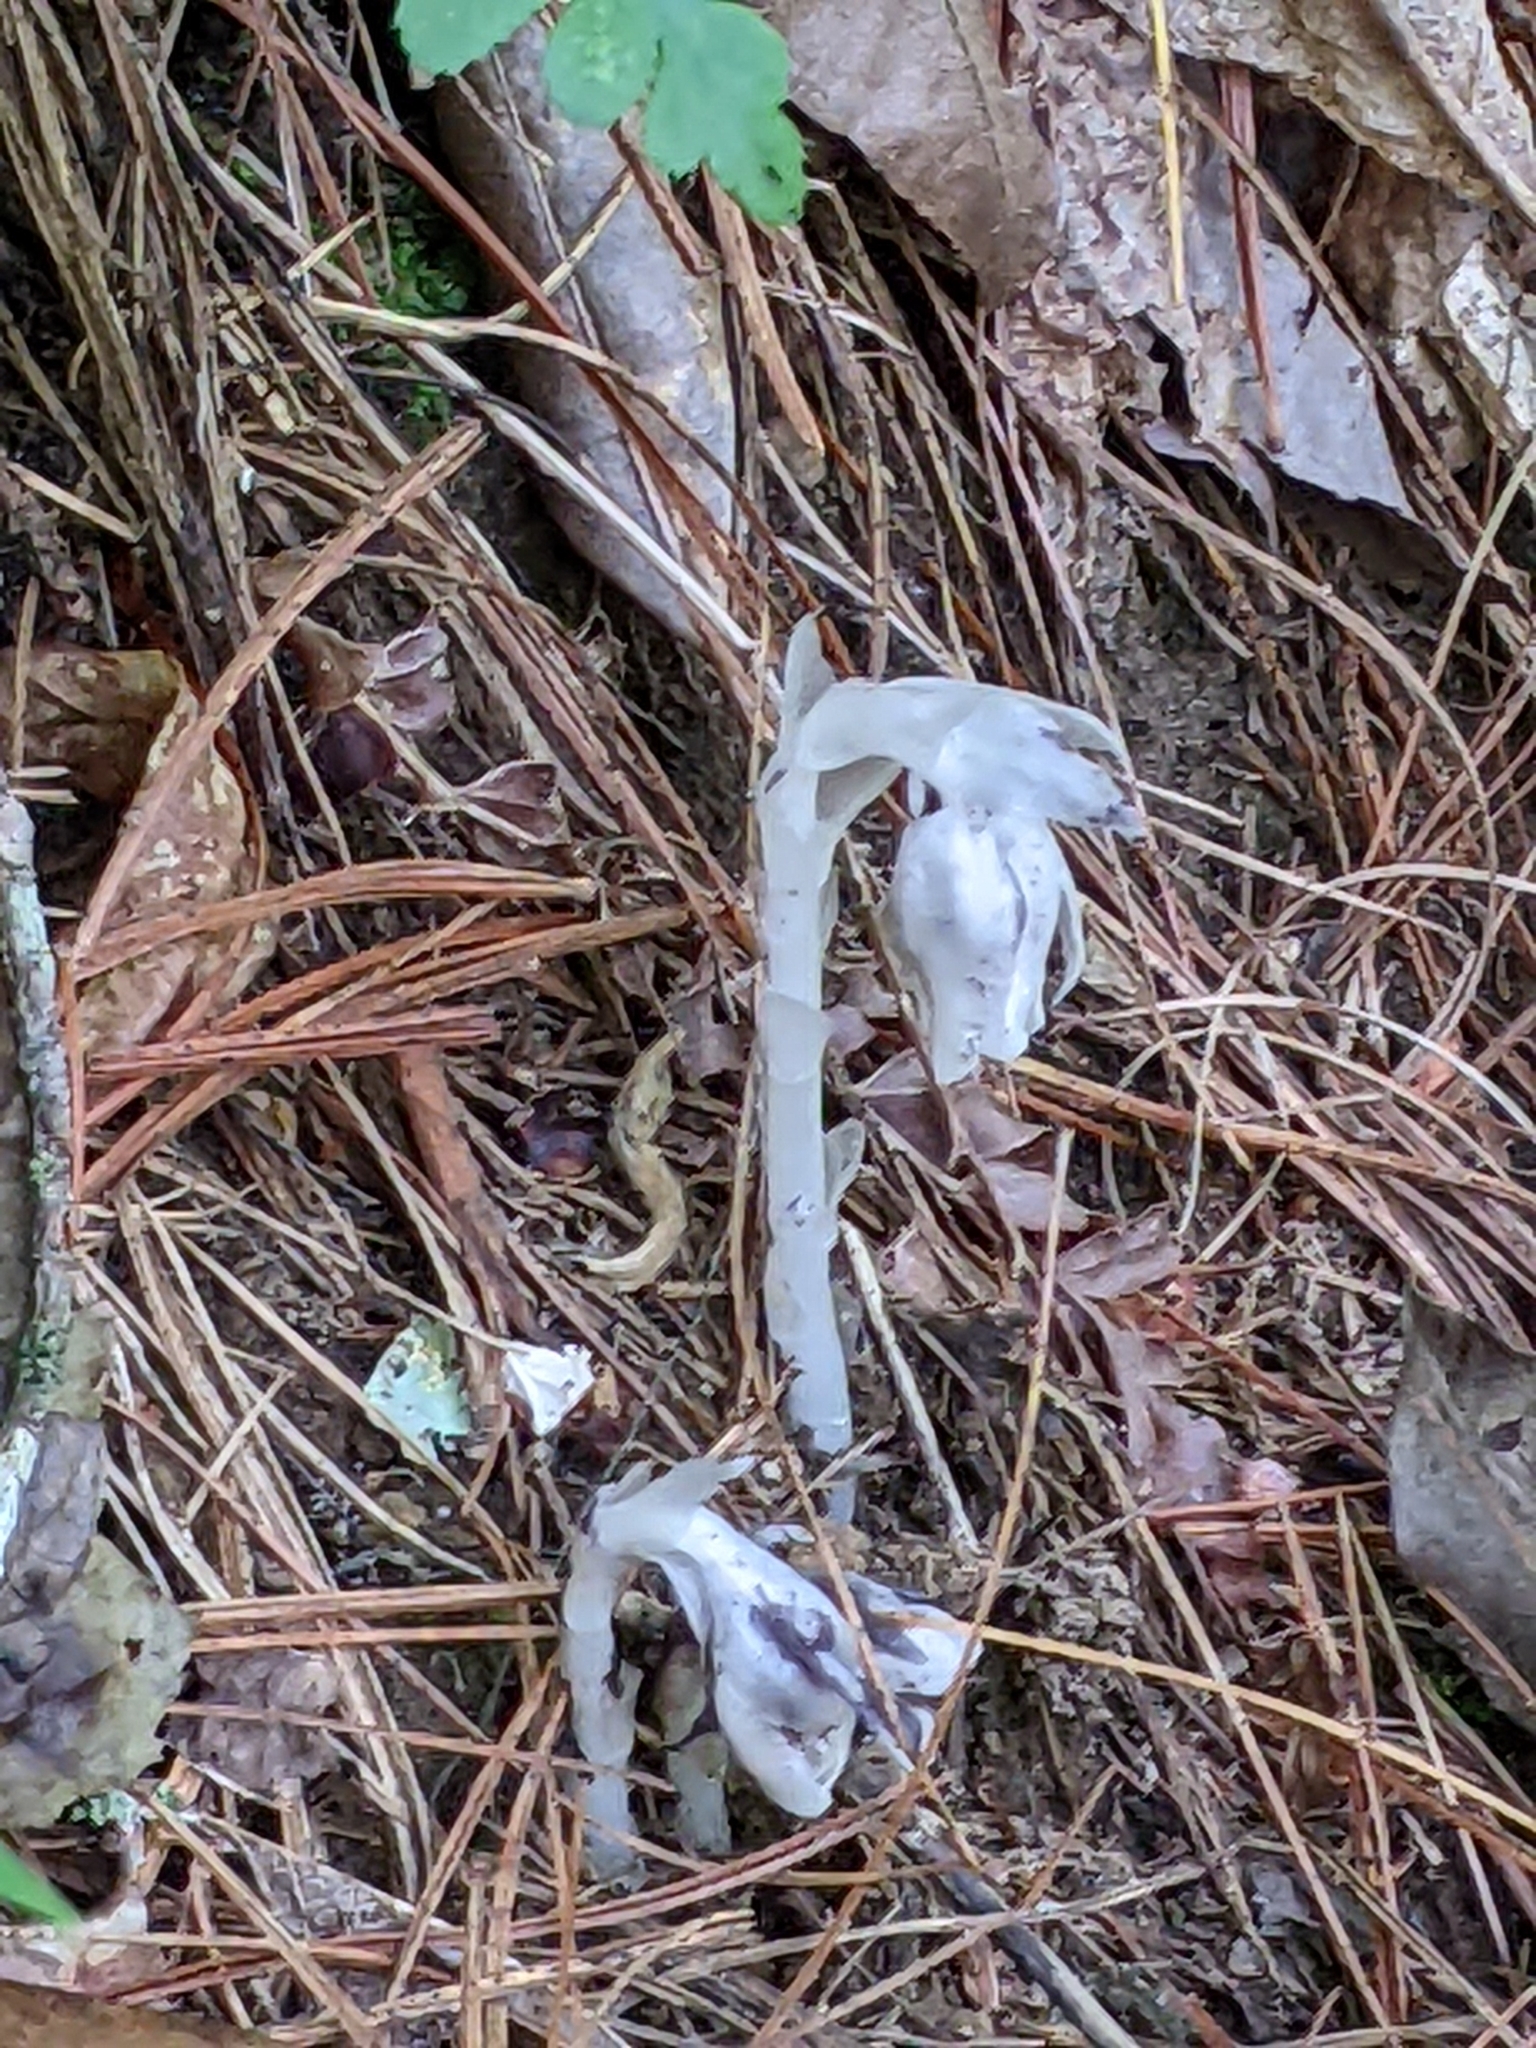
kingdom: Plantae
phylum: Tracheophyta
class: Magnoliopsida
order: Ericales
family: Ericaceae
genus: Monotropa
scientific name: Monotropa uniflora
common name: Convulsion root
